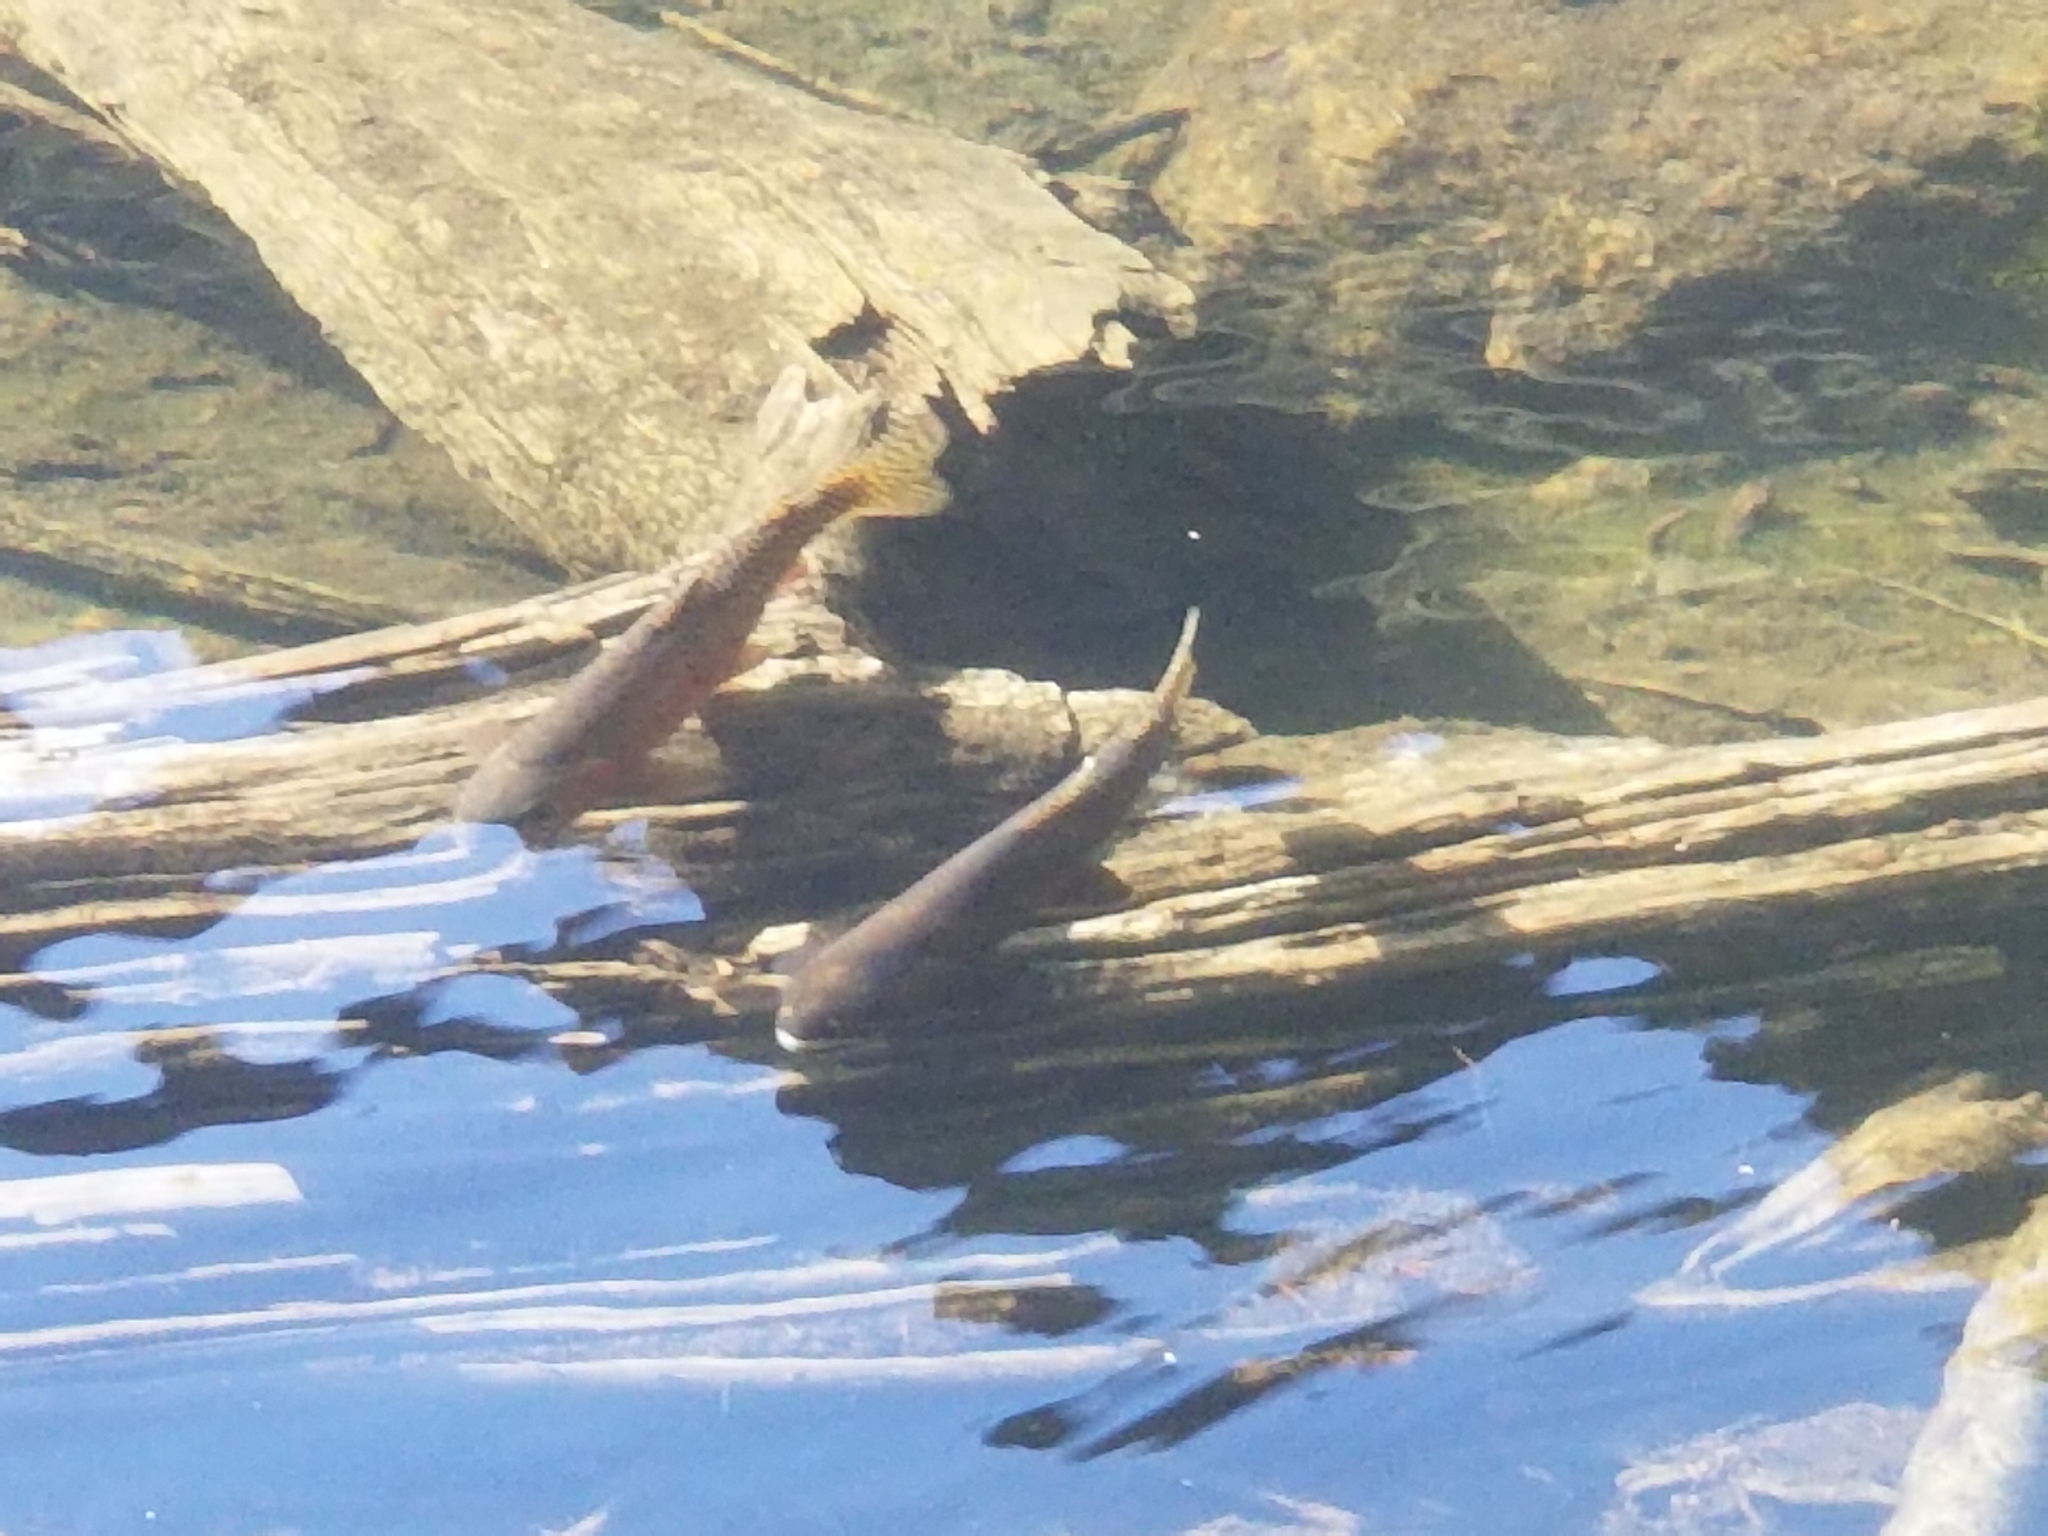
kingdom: Animalia
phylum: Chordata
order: Salmoniformes
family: Salmonidae
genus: Oncorhynchus
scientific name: Oncorhynchus virginalis
